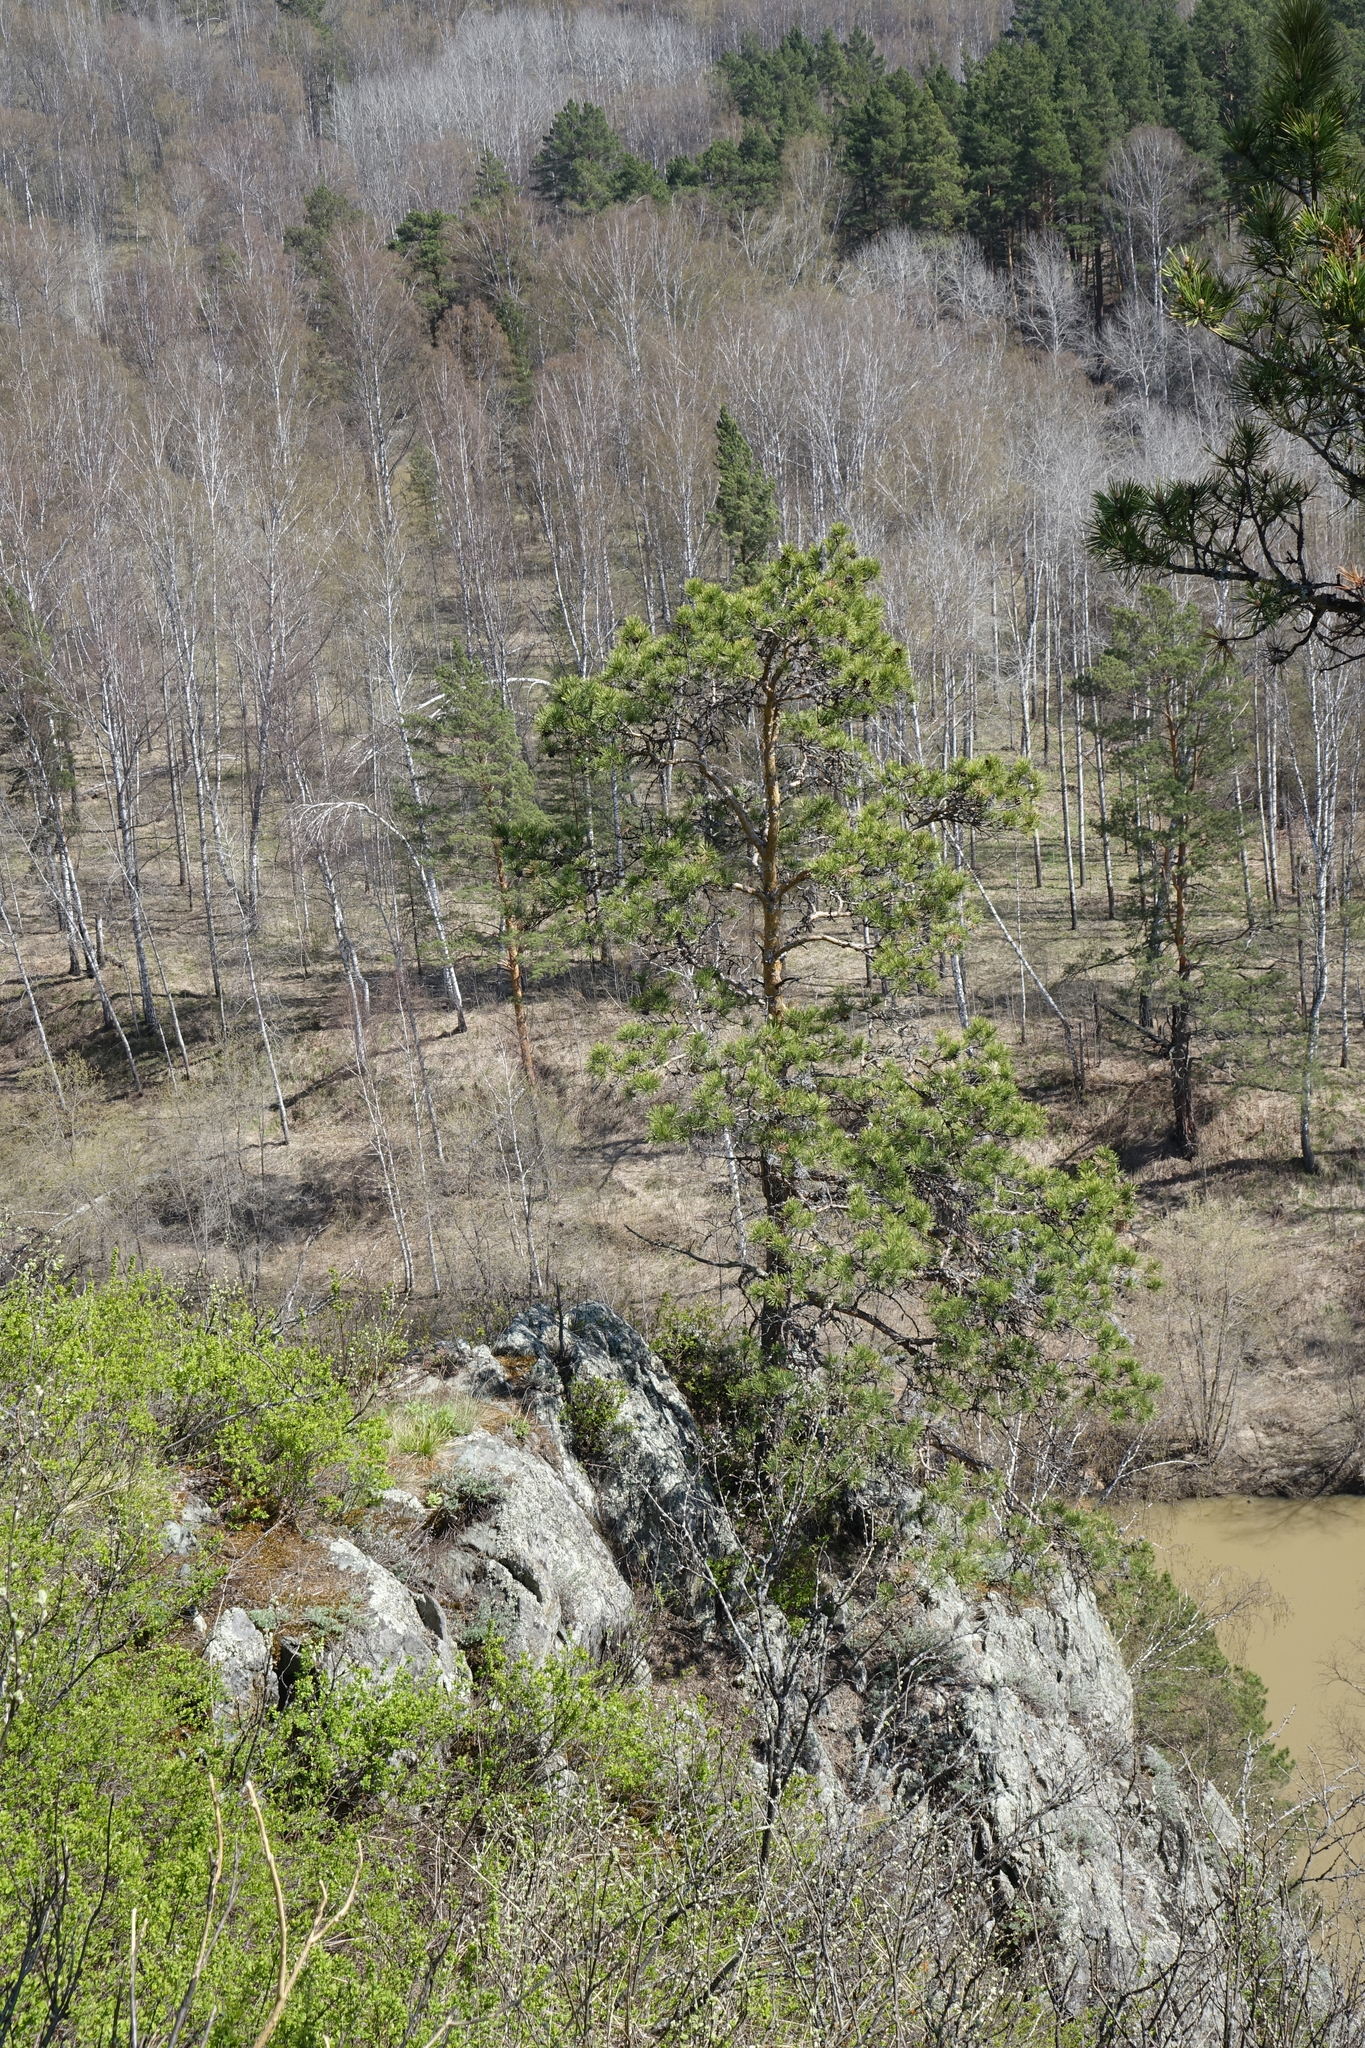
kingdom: Plantae
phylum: Tracheophyta
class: Pinopsida
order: Pinales
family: Pinaceae
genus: Pinus
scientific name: Pinus sylvestris
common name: Scots pine
